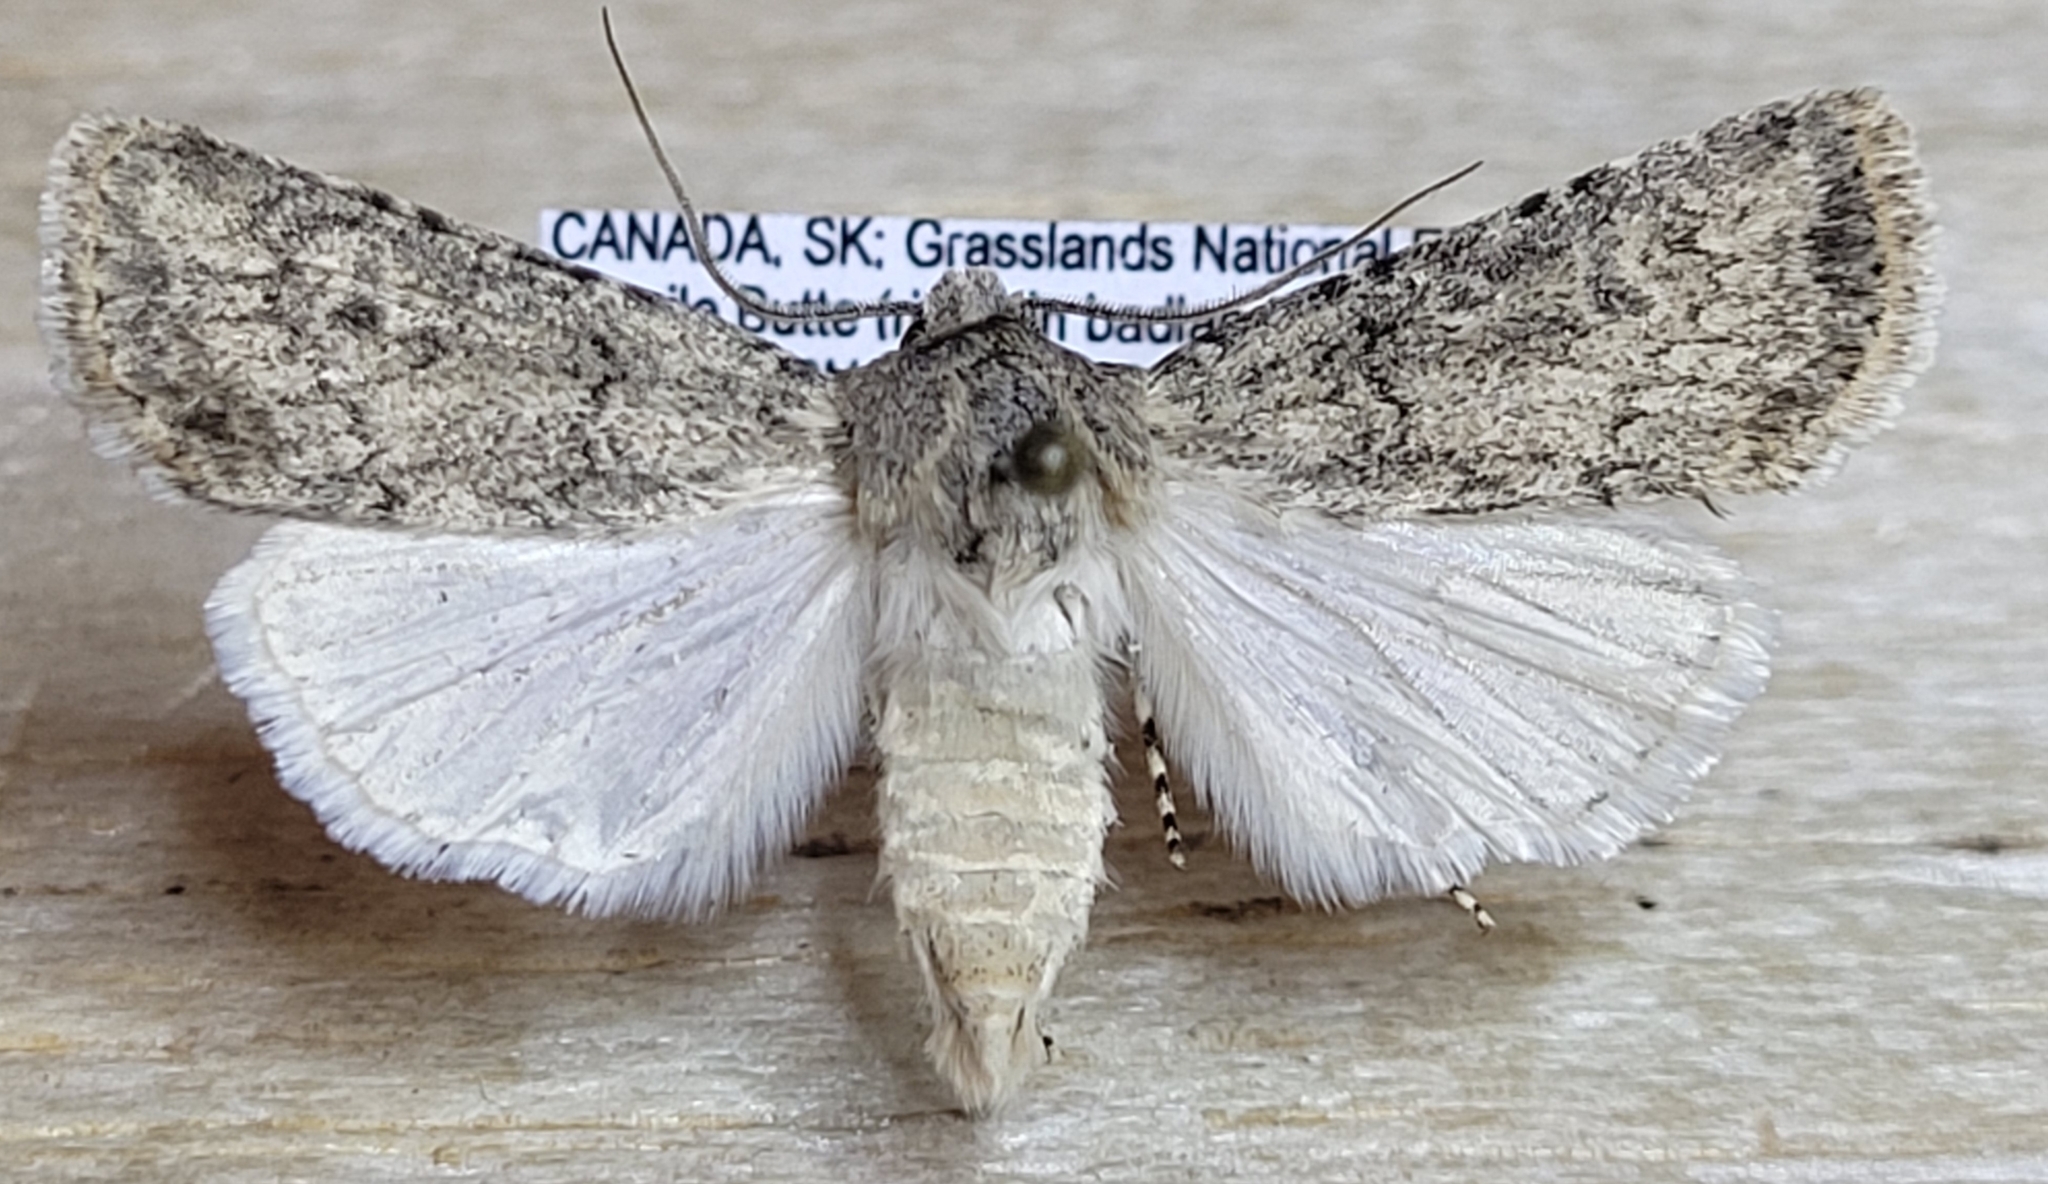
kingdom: Animalia
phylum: Arthropoda
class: Insecta
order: Lepidoptera
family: Noctuidae
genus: Euxoa
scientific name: Euxoa misturata
